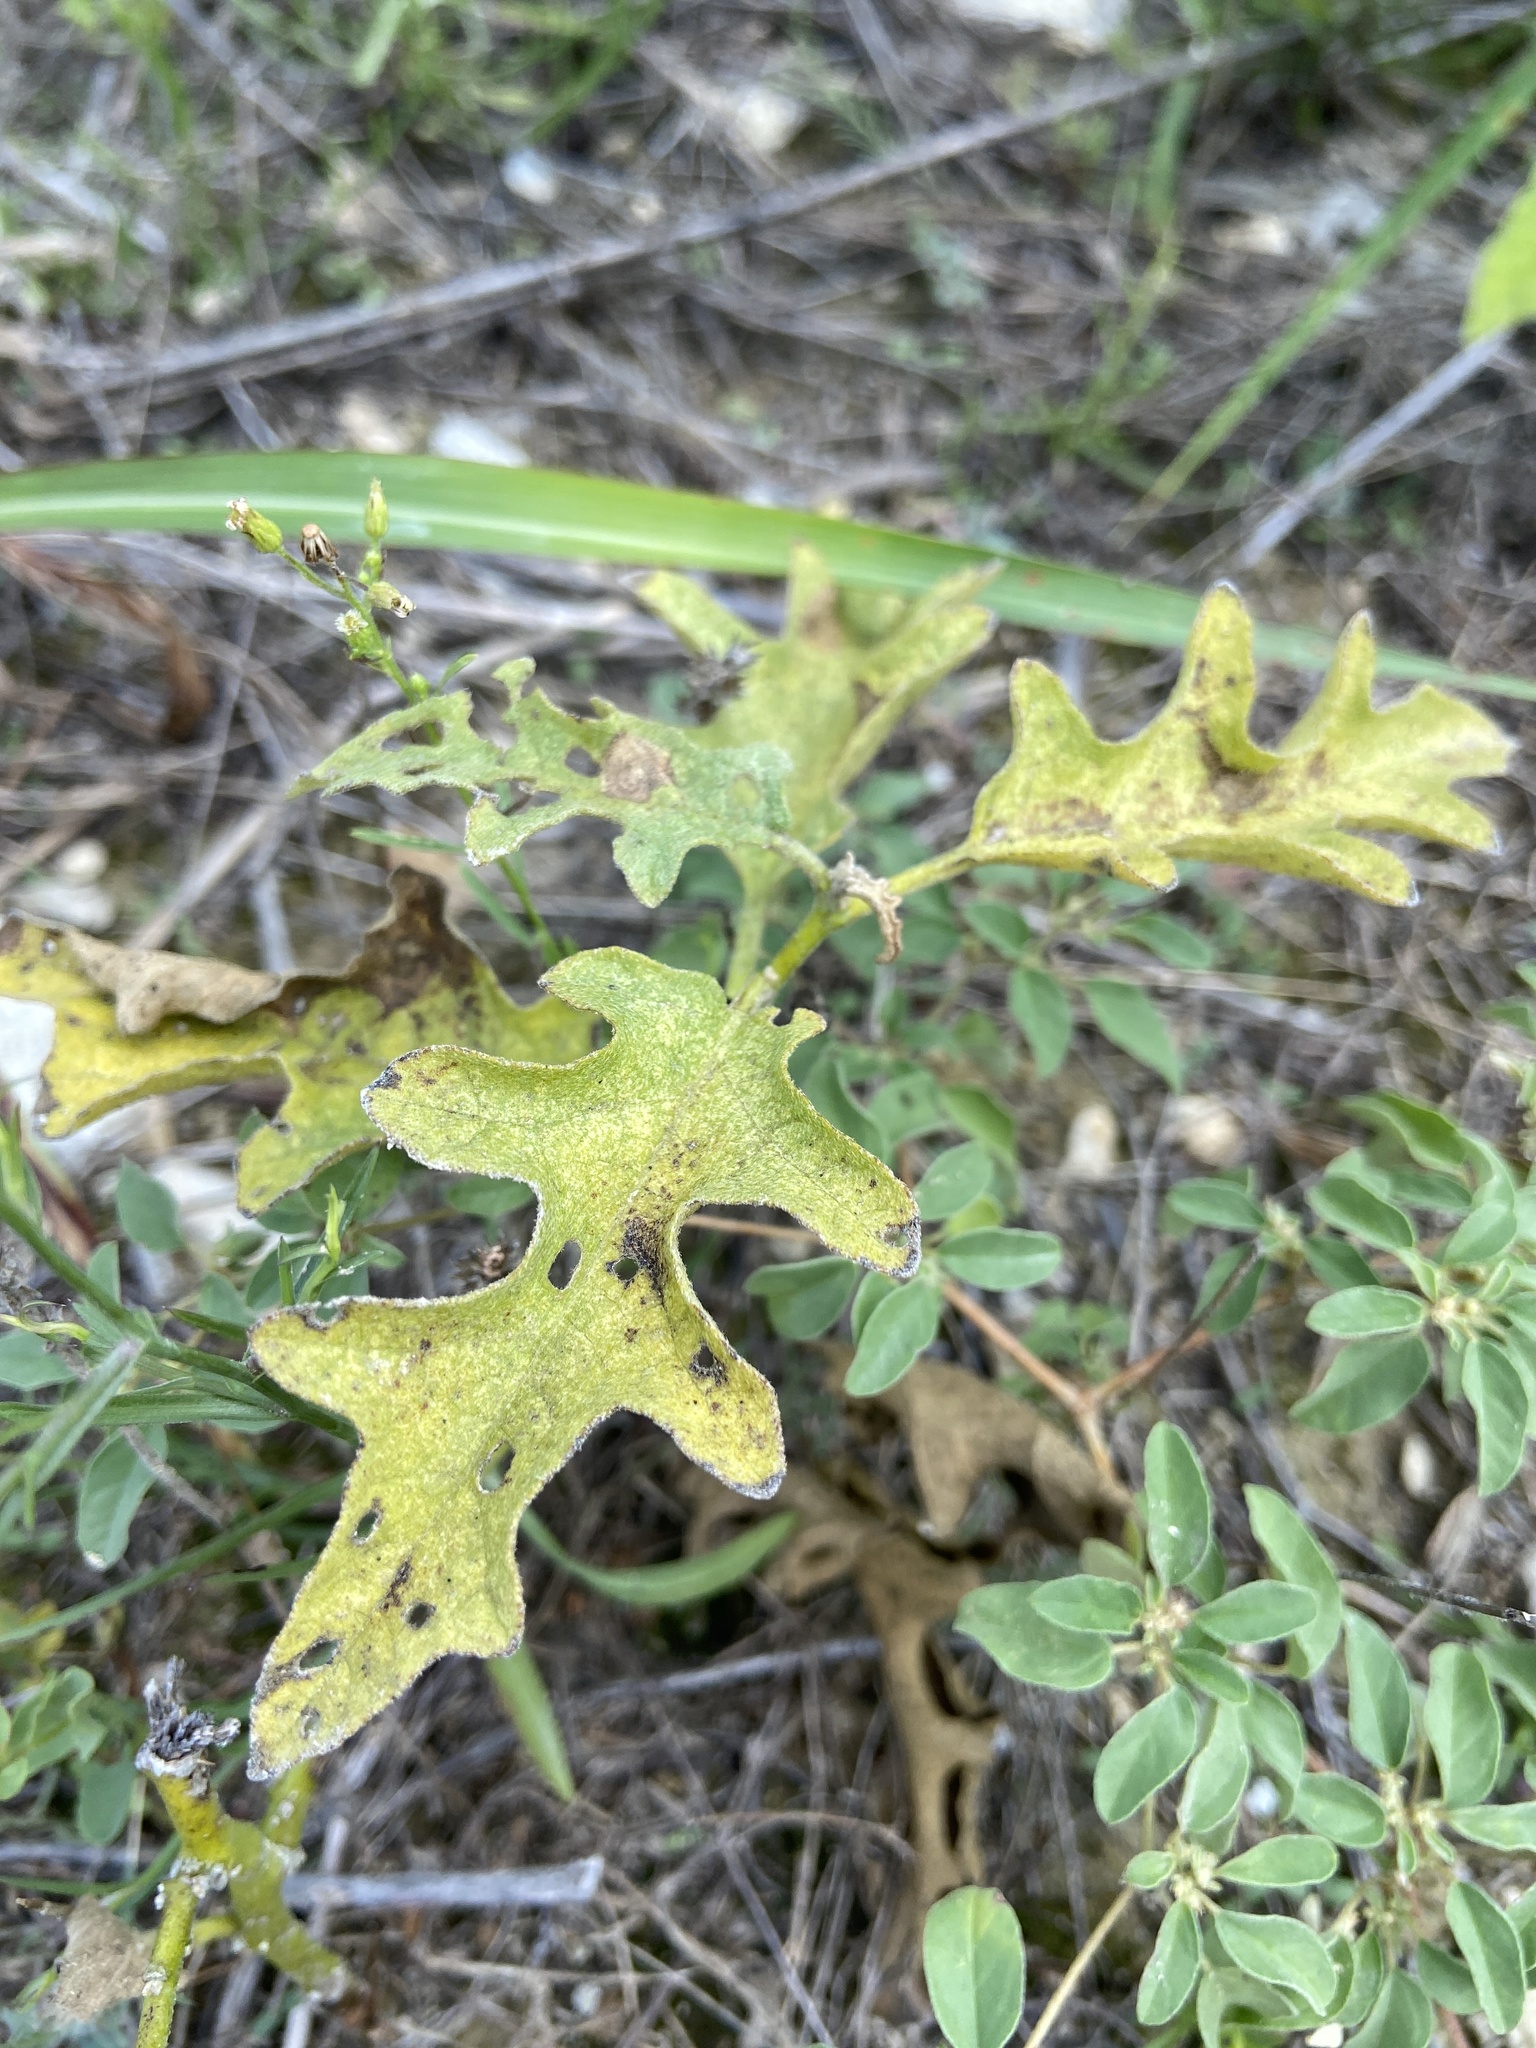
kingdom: Plantae
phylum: Tracheophyta
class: Magnoliopsida
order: Solanales
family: Solanaceae
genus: Solanum
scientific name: Solanum dimidiatum
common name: Carolina horse-nettle
